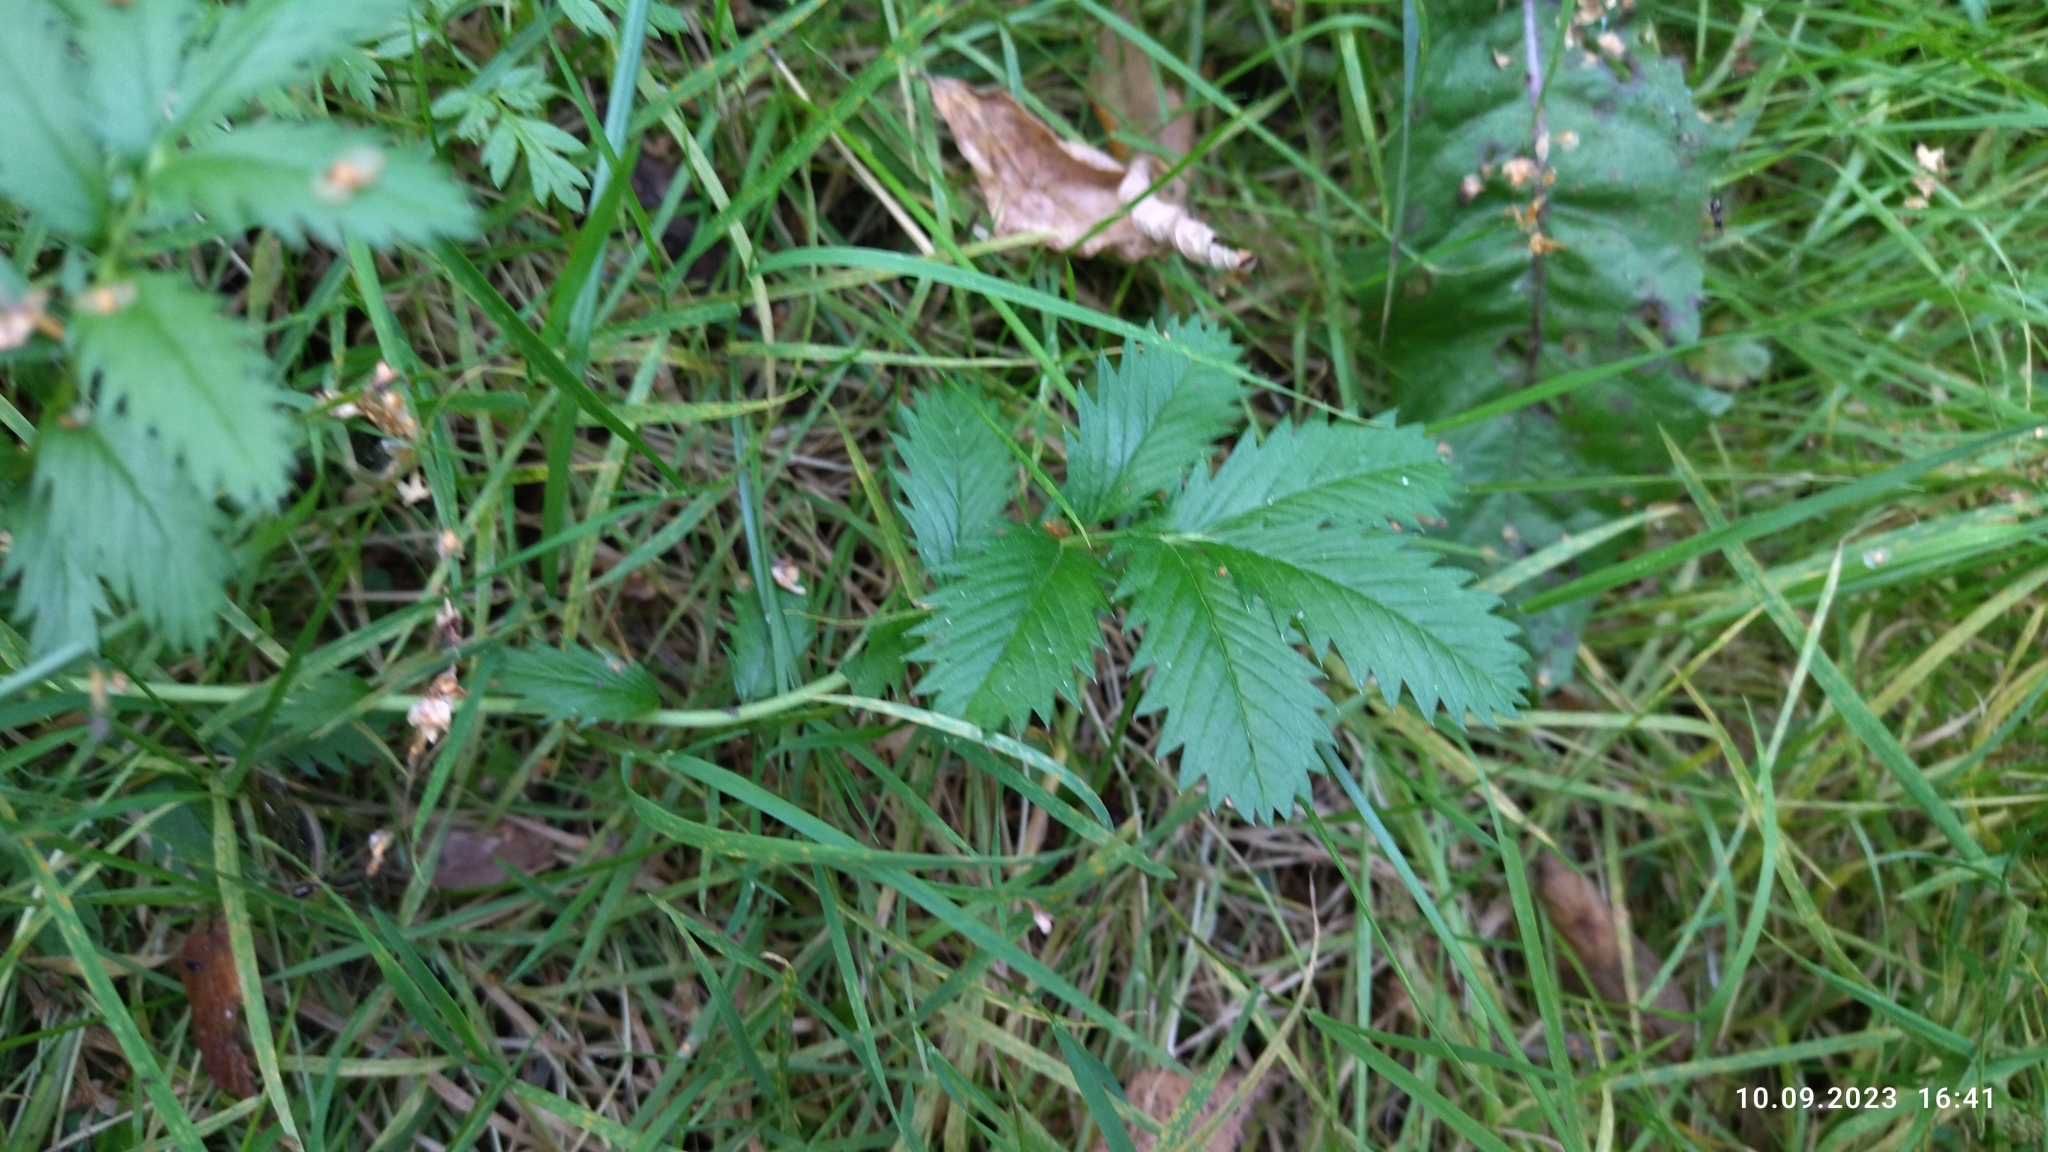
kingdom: Plantae
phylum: Tracheophyta
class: Magnoliopsida
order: Rosales
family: Rosaceae
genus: Argentina
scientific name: Argentina anserina
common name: Common silverweed
